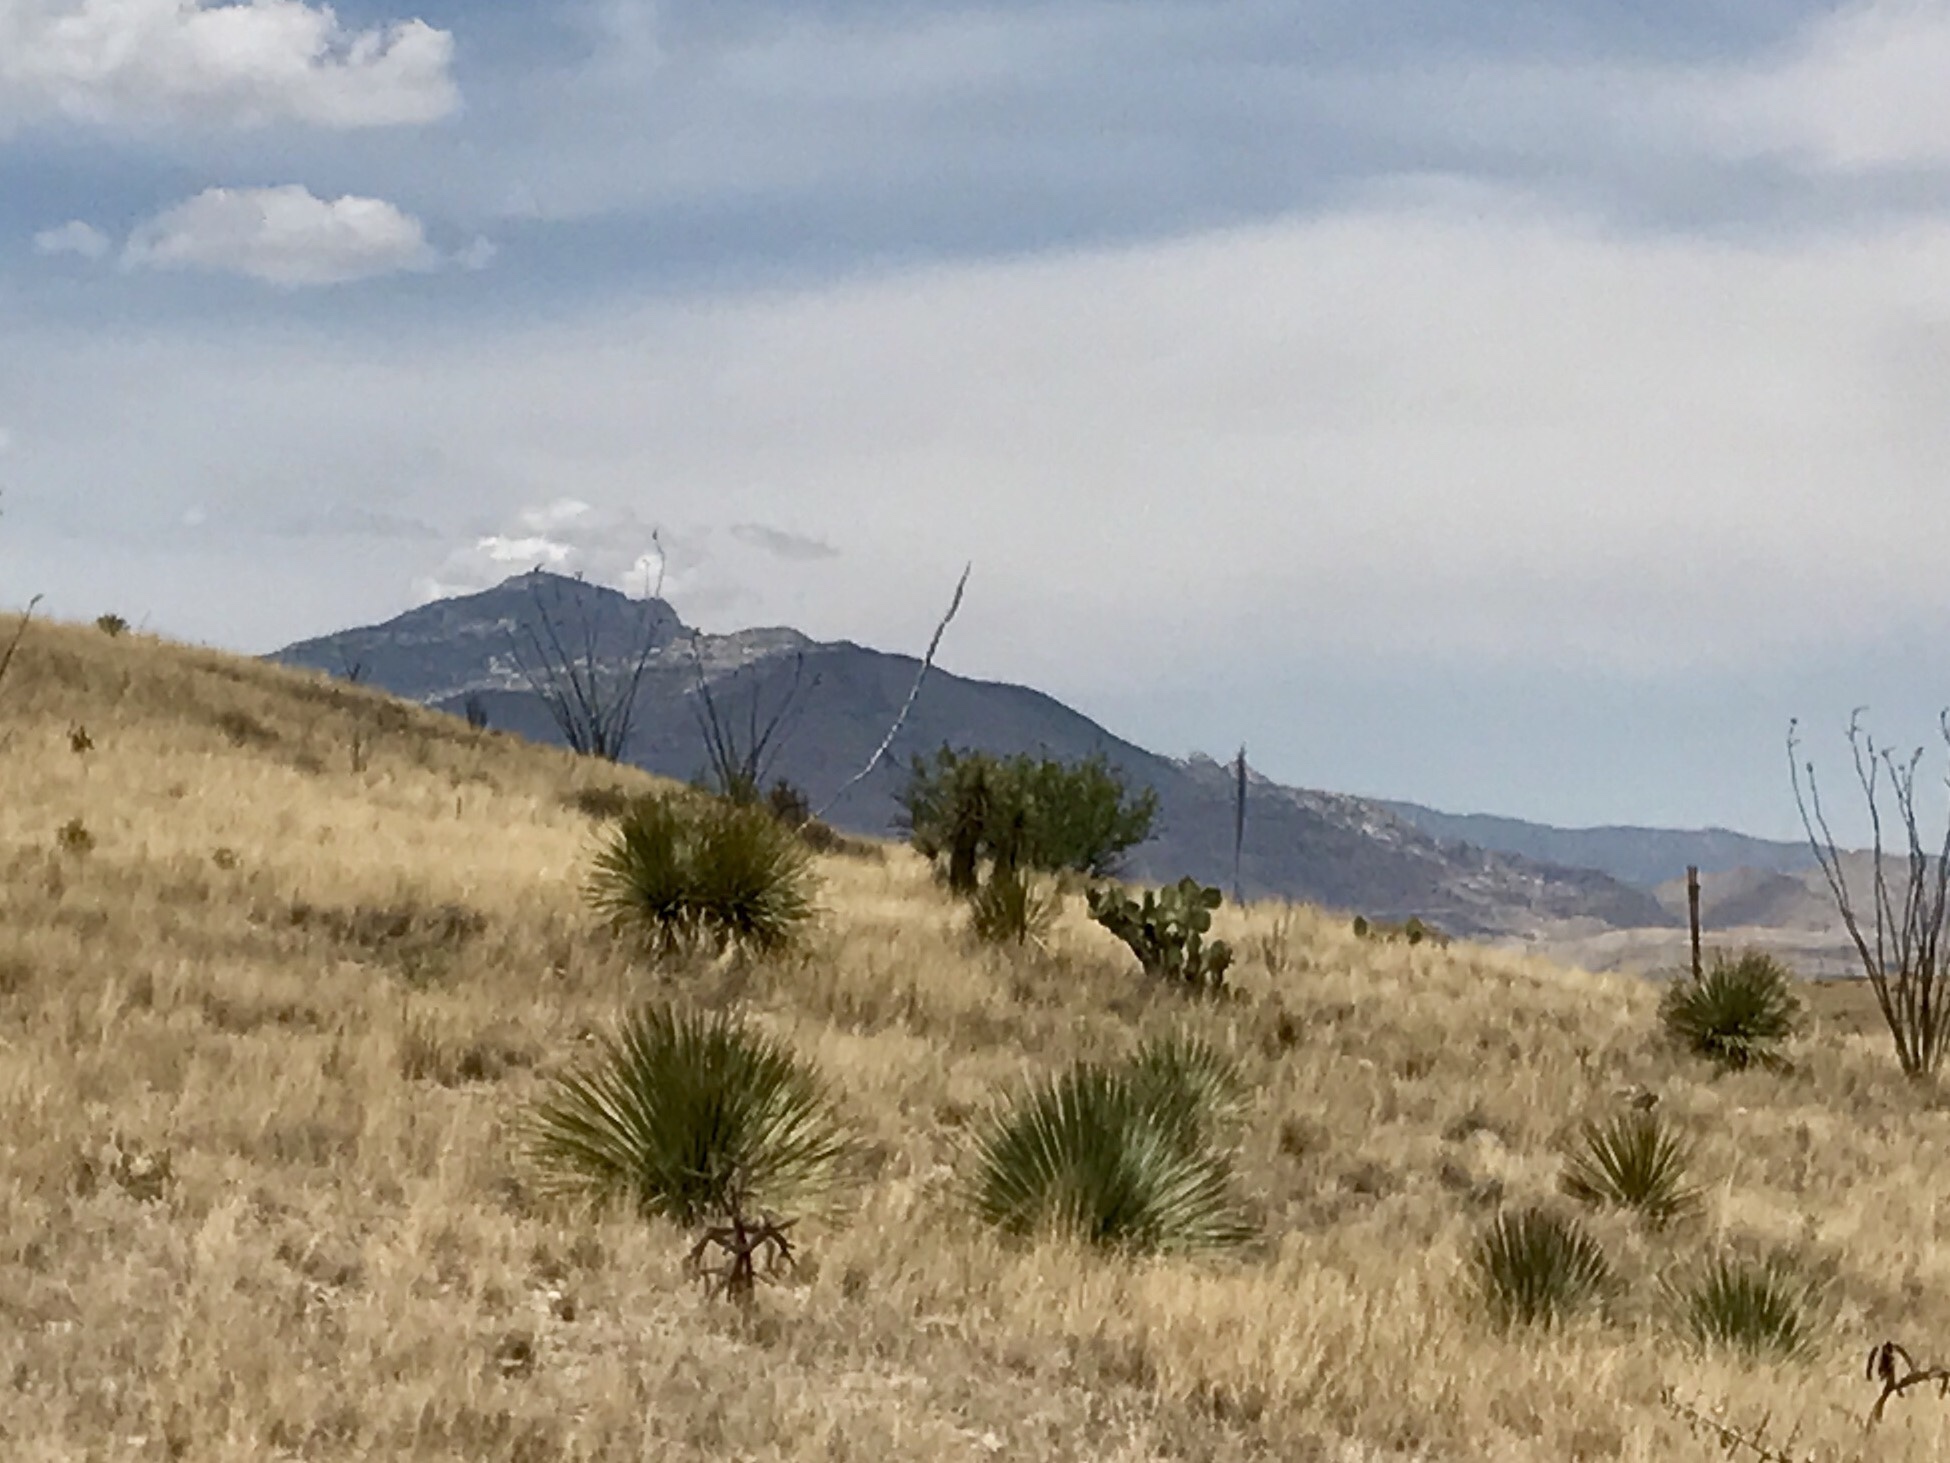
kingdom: Plantae
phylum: Tracheophyta
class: Liliopsida
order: Asparagales
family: Asparagaceae
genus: Dasylirion
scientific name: Dasylirion wheeleri
